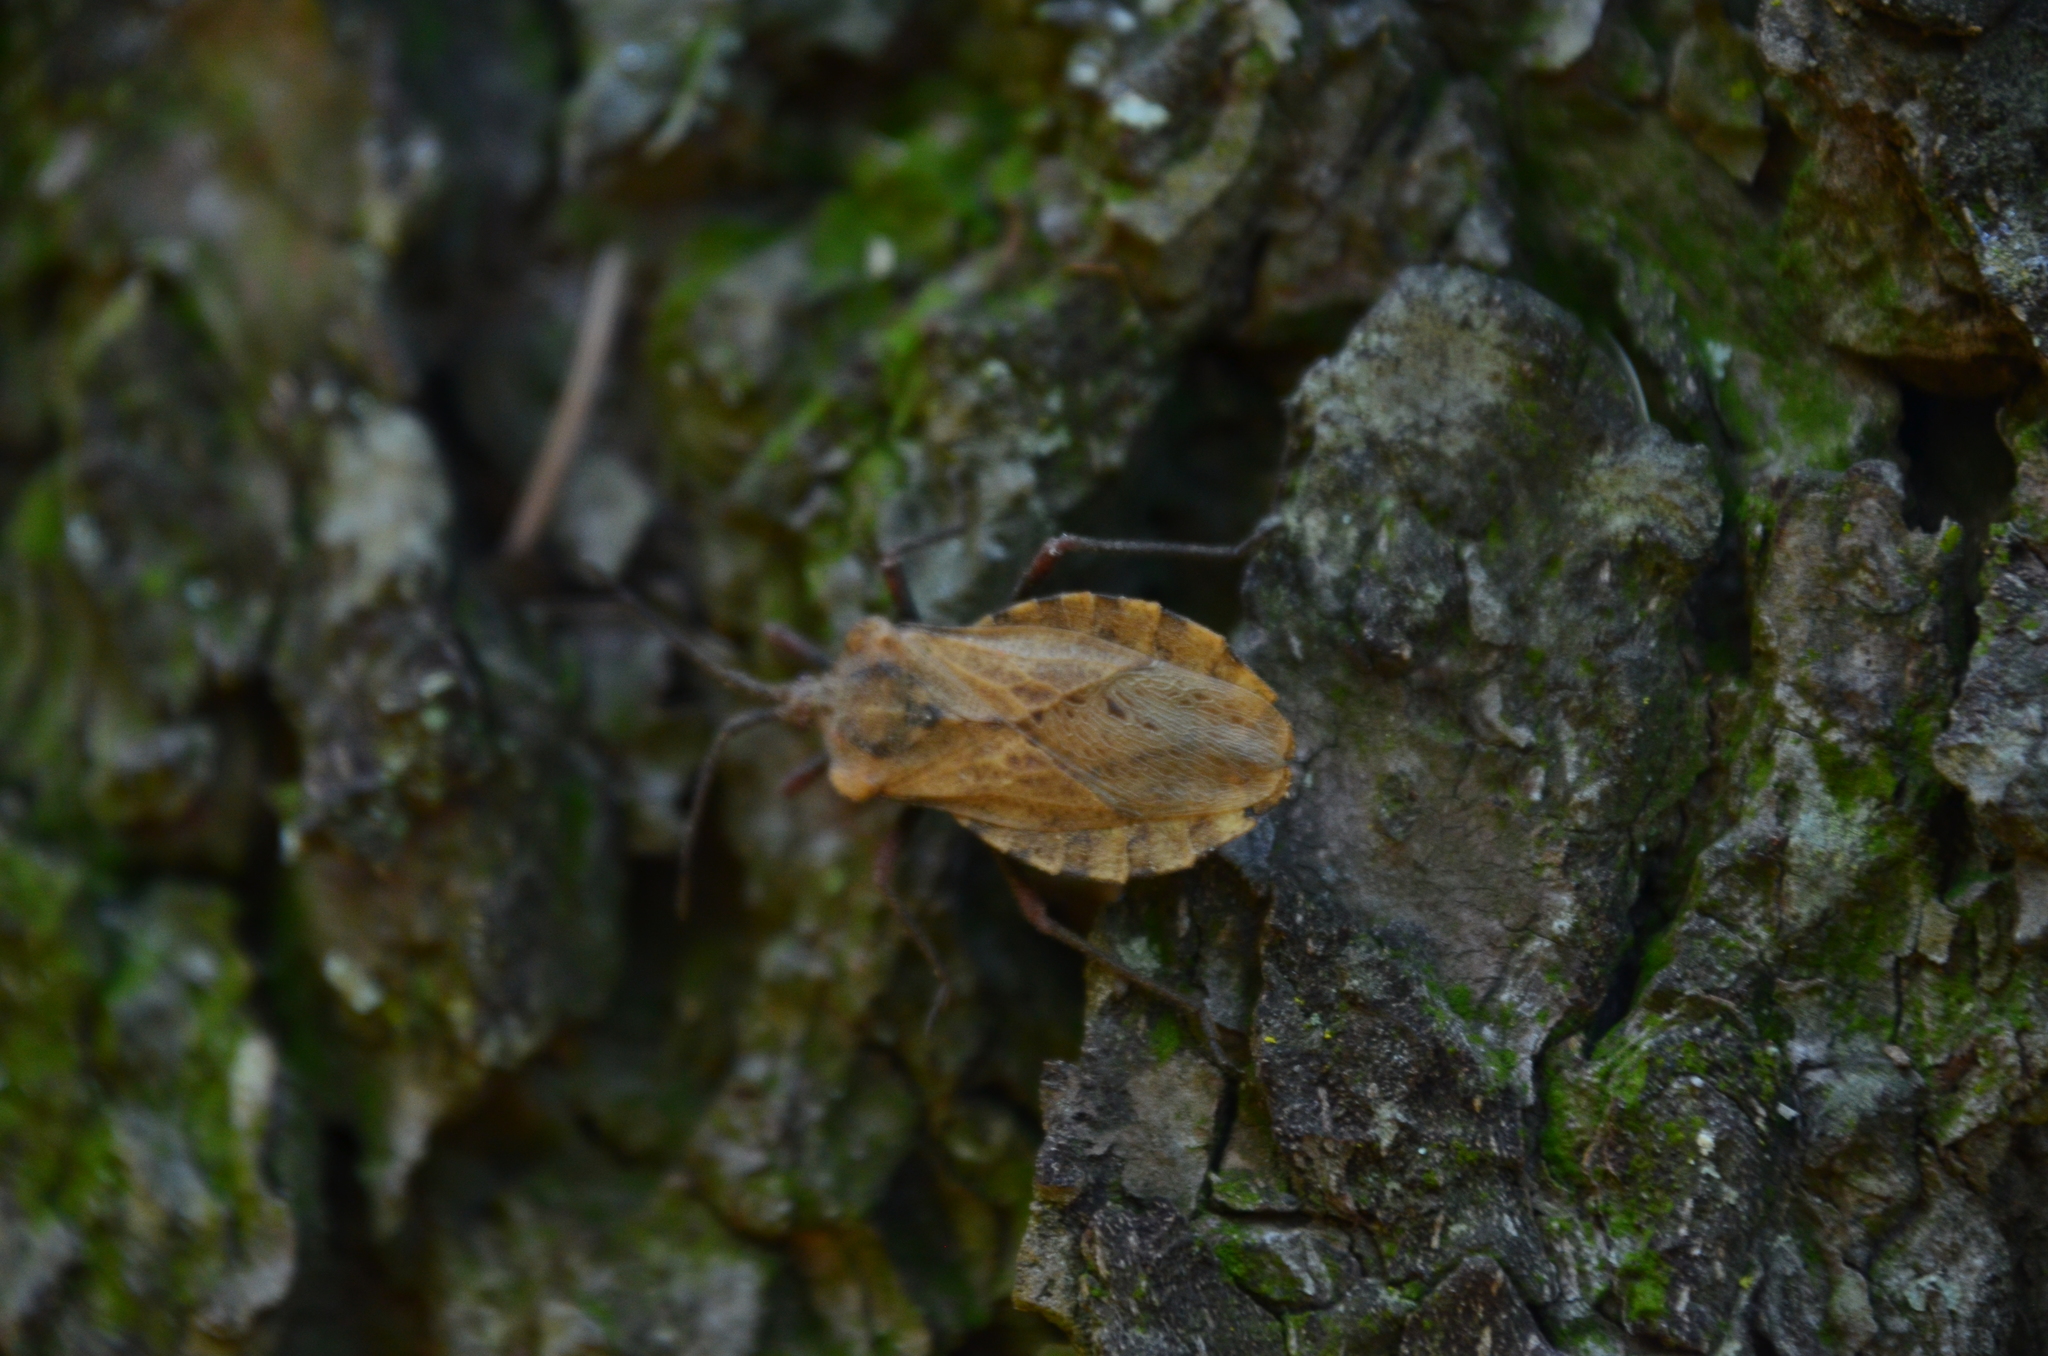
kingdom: Animalia
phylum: Arthropoda
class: Insecta
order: Hemiptera
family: Coreidae
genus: Spartocera
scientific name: Spartocera fusca
